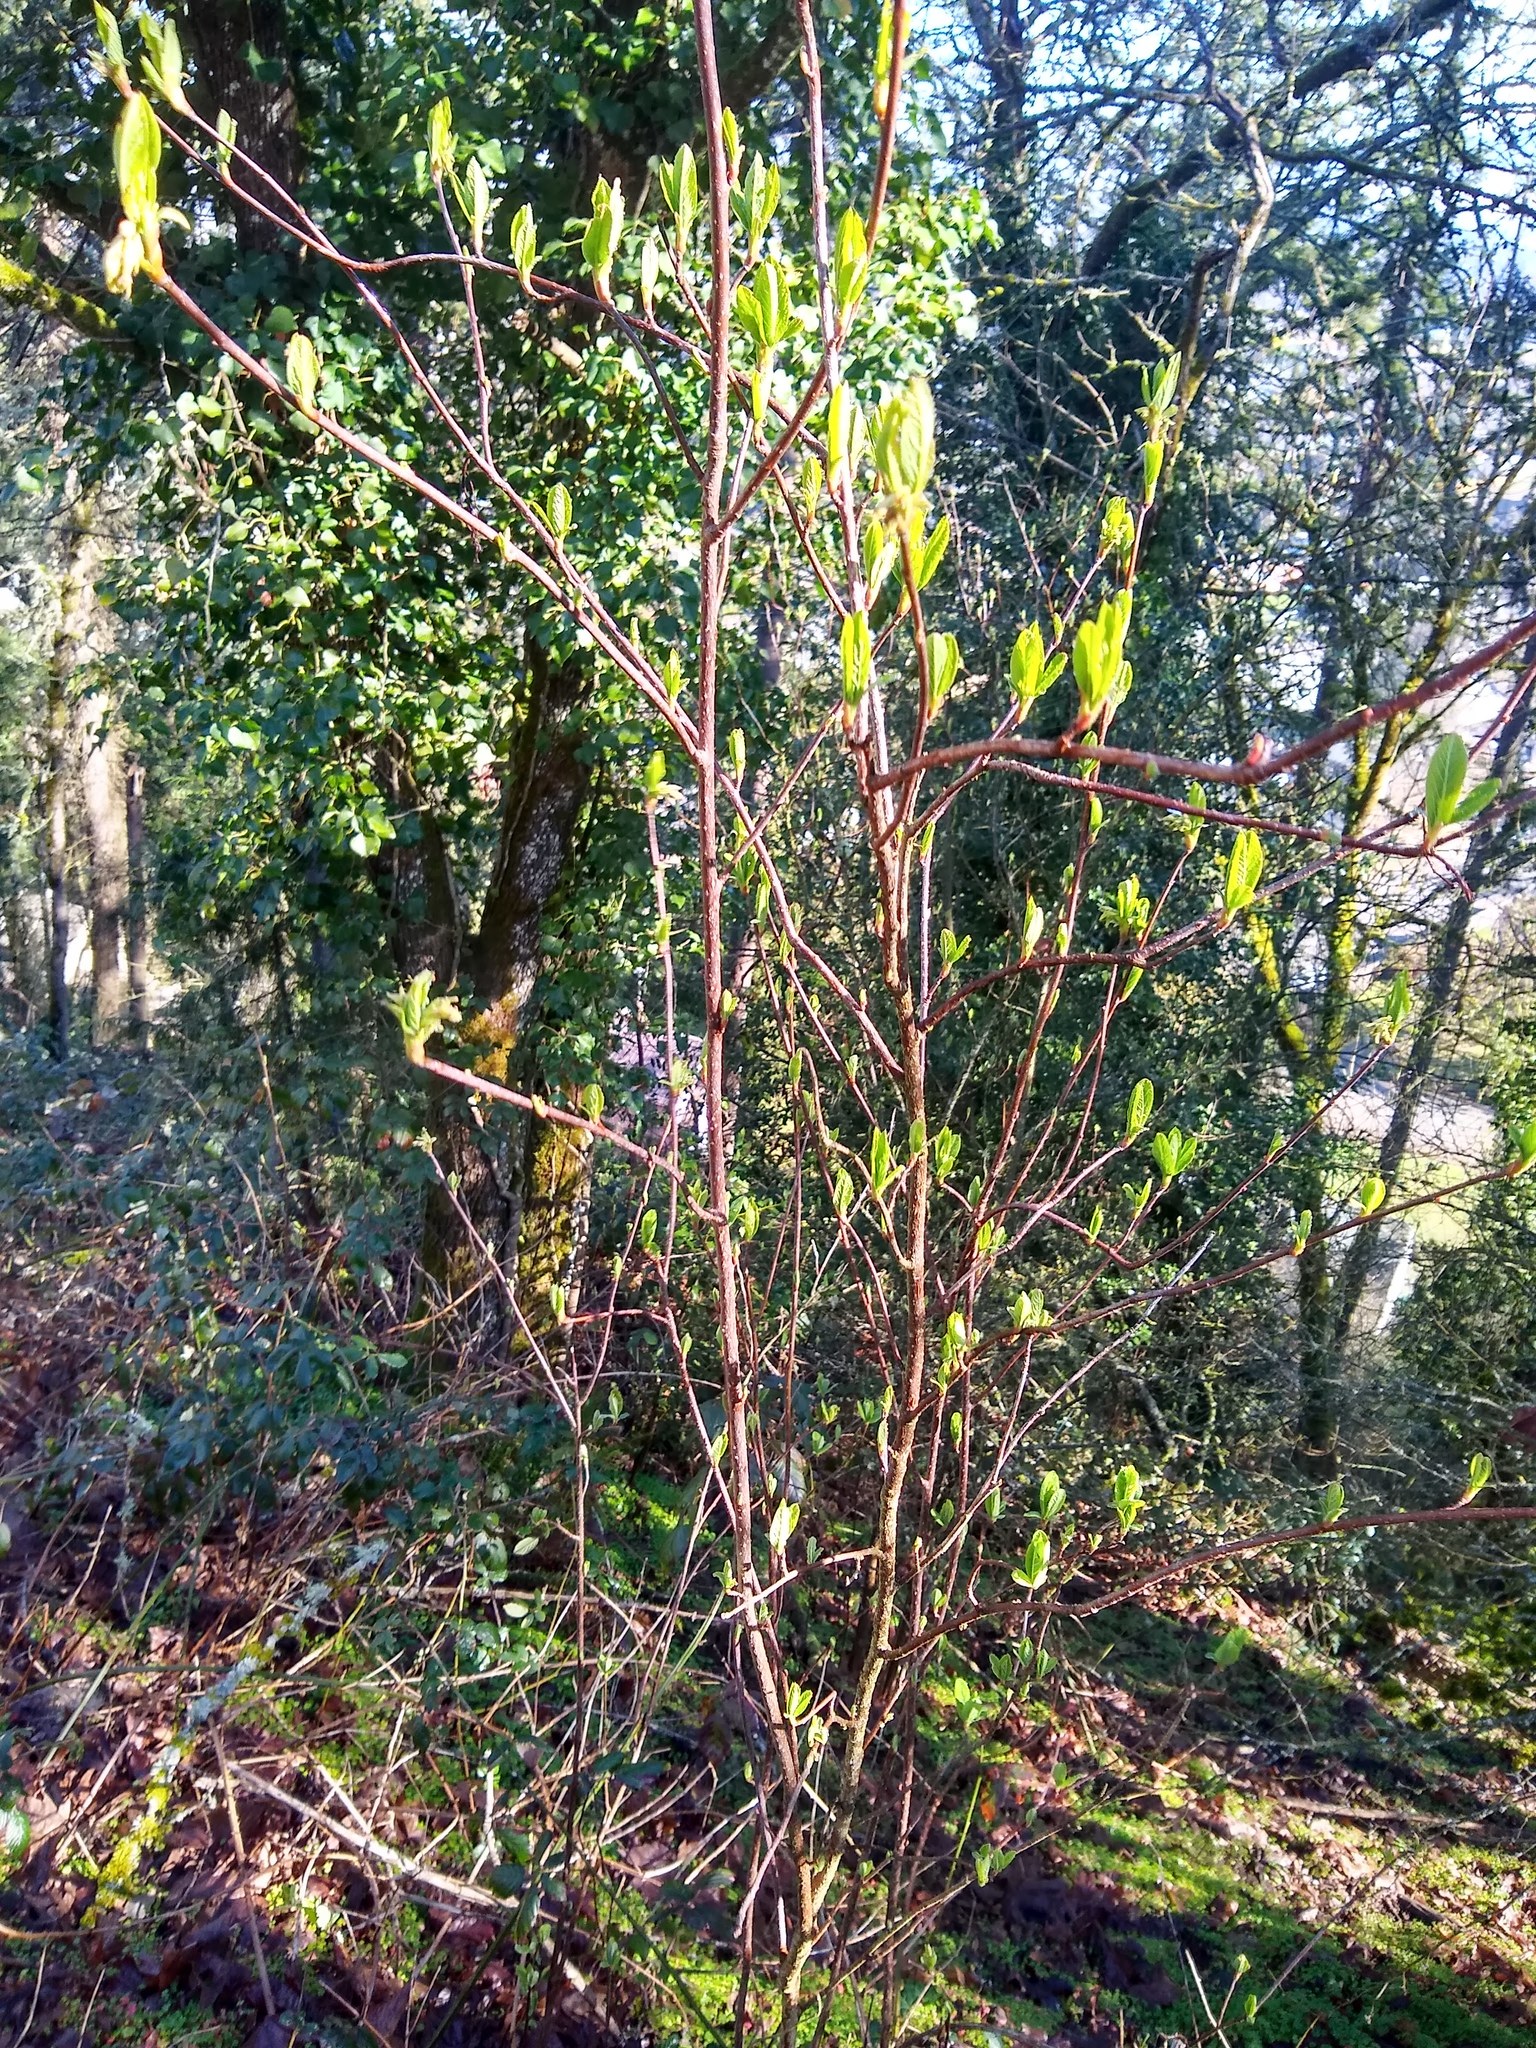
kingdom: Plantae
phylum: Tracheophyta
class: Magnoliopsida
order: Rosales
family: Rosaceae
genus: Oemleria
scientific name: Oemleria cerasiformis
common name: Osoberry
